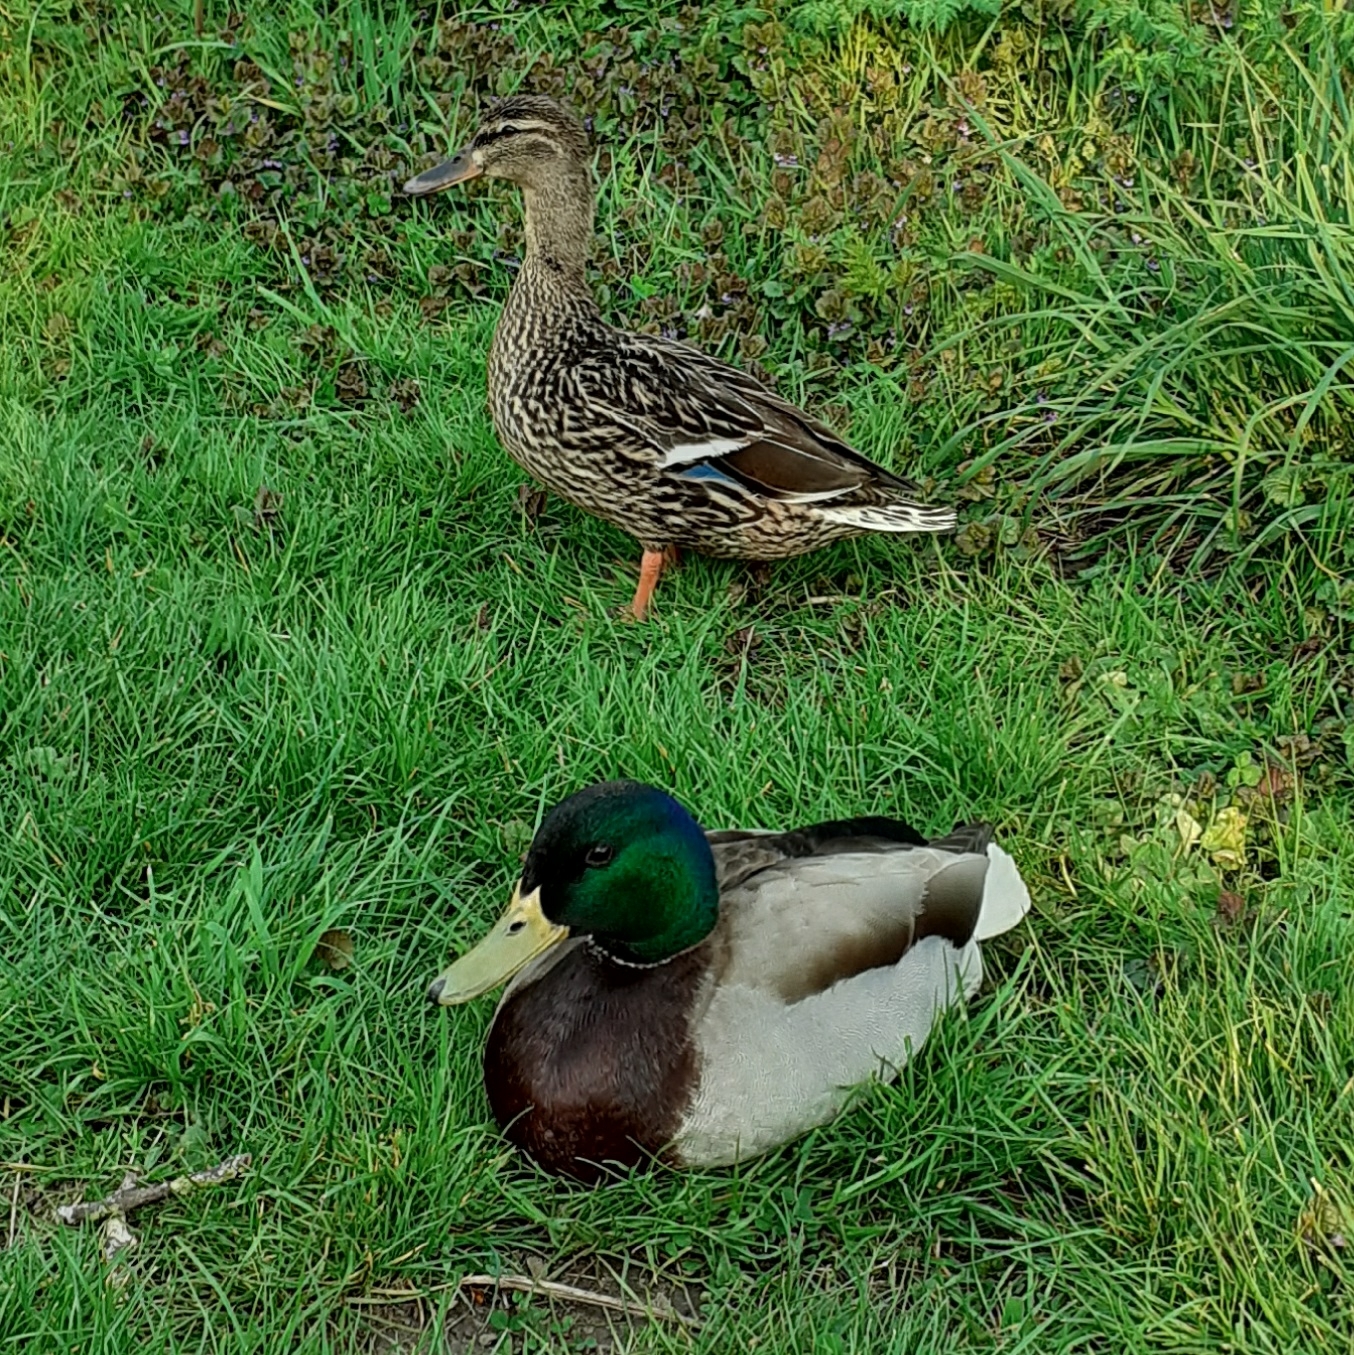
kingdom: Animalia
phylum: Chordata
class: Aves
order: Anseriformes
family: Anatidae
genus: Anas
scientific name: Anas platyrhynchos
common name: Mallard
